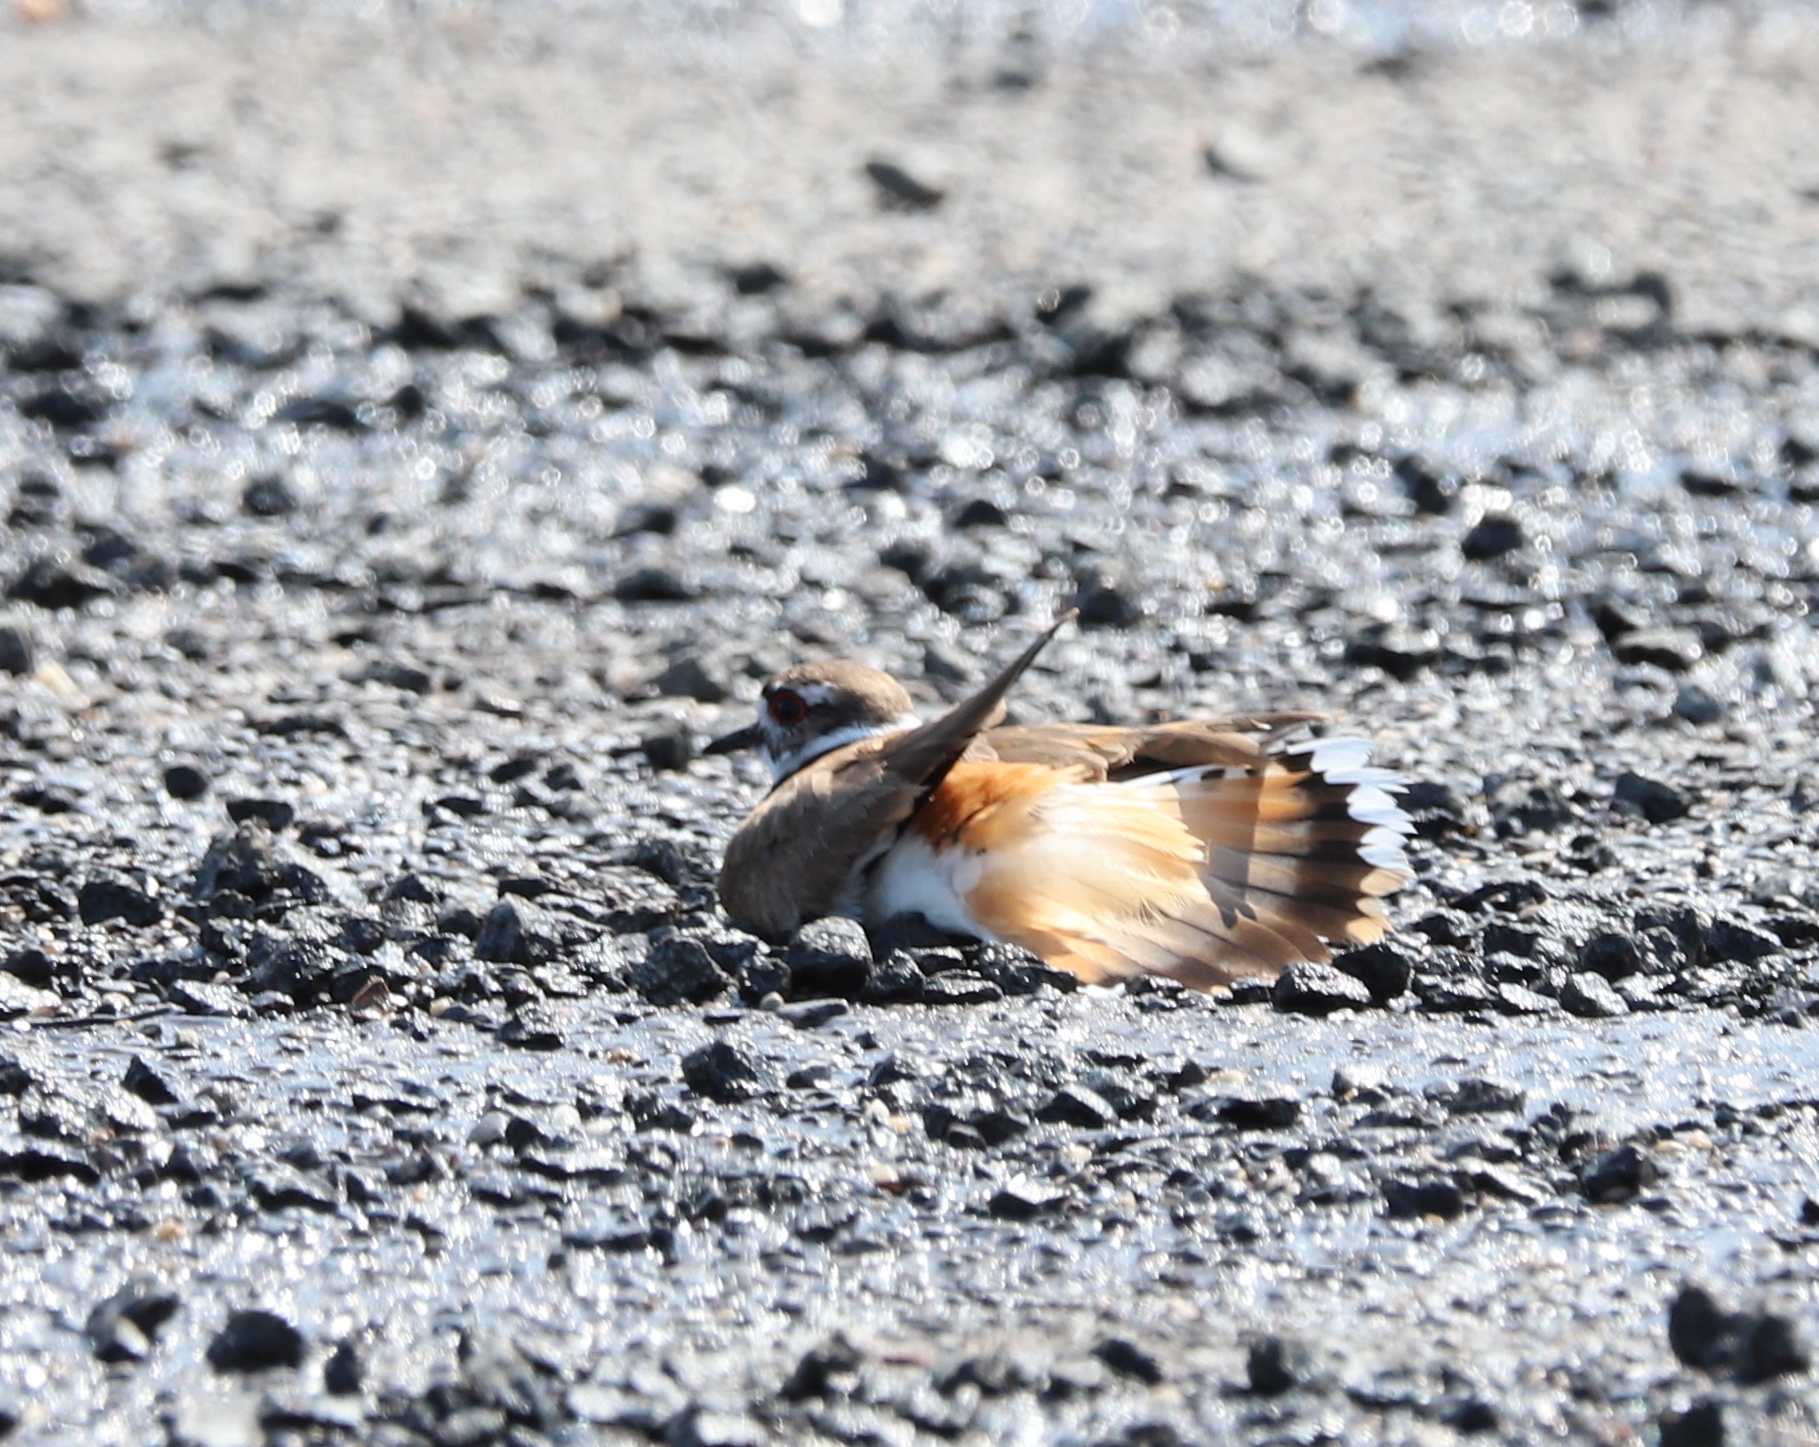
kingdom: Animalia
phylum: Chordata
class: Aves
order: Charadriiformes
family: Charadriidae
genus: Charadrius
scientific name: Charadrius vociferus
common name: Killdeer
